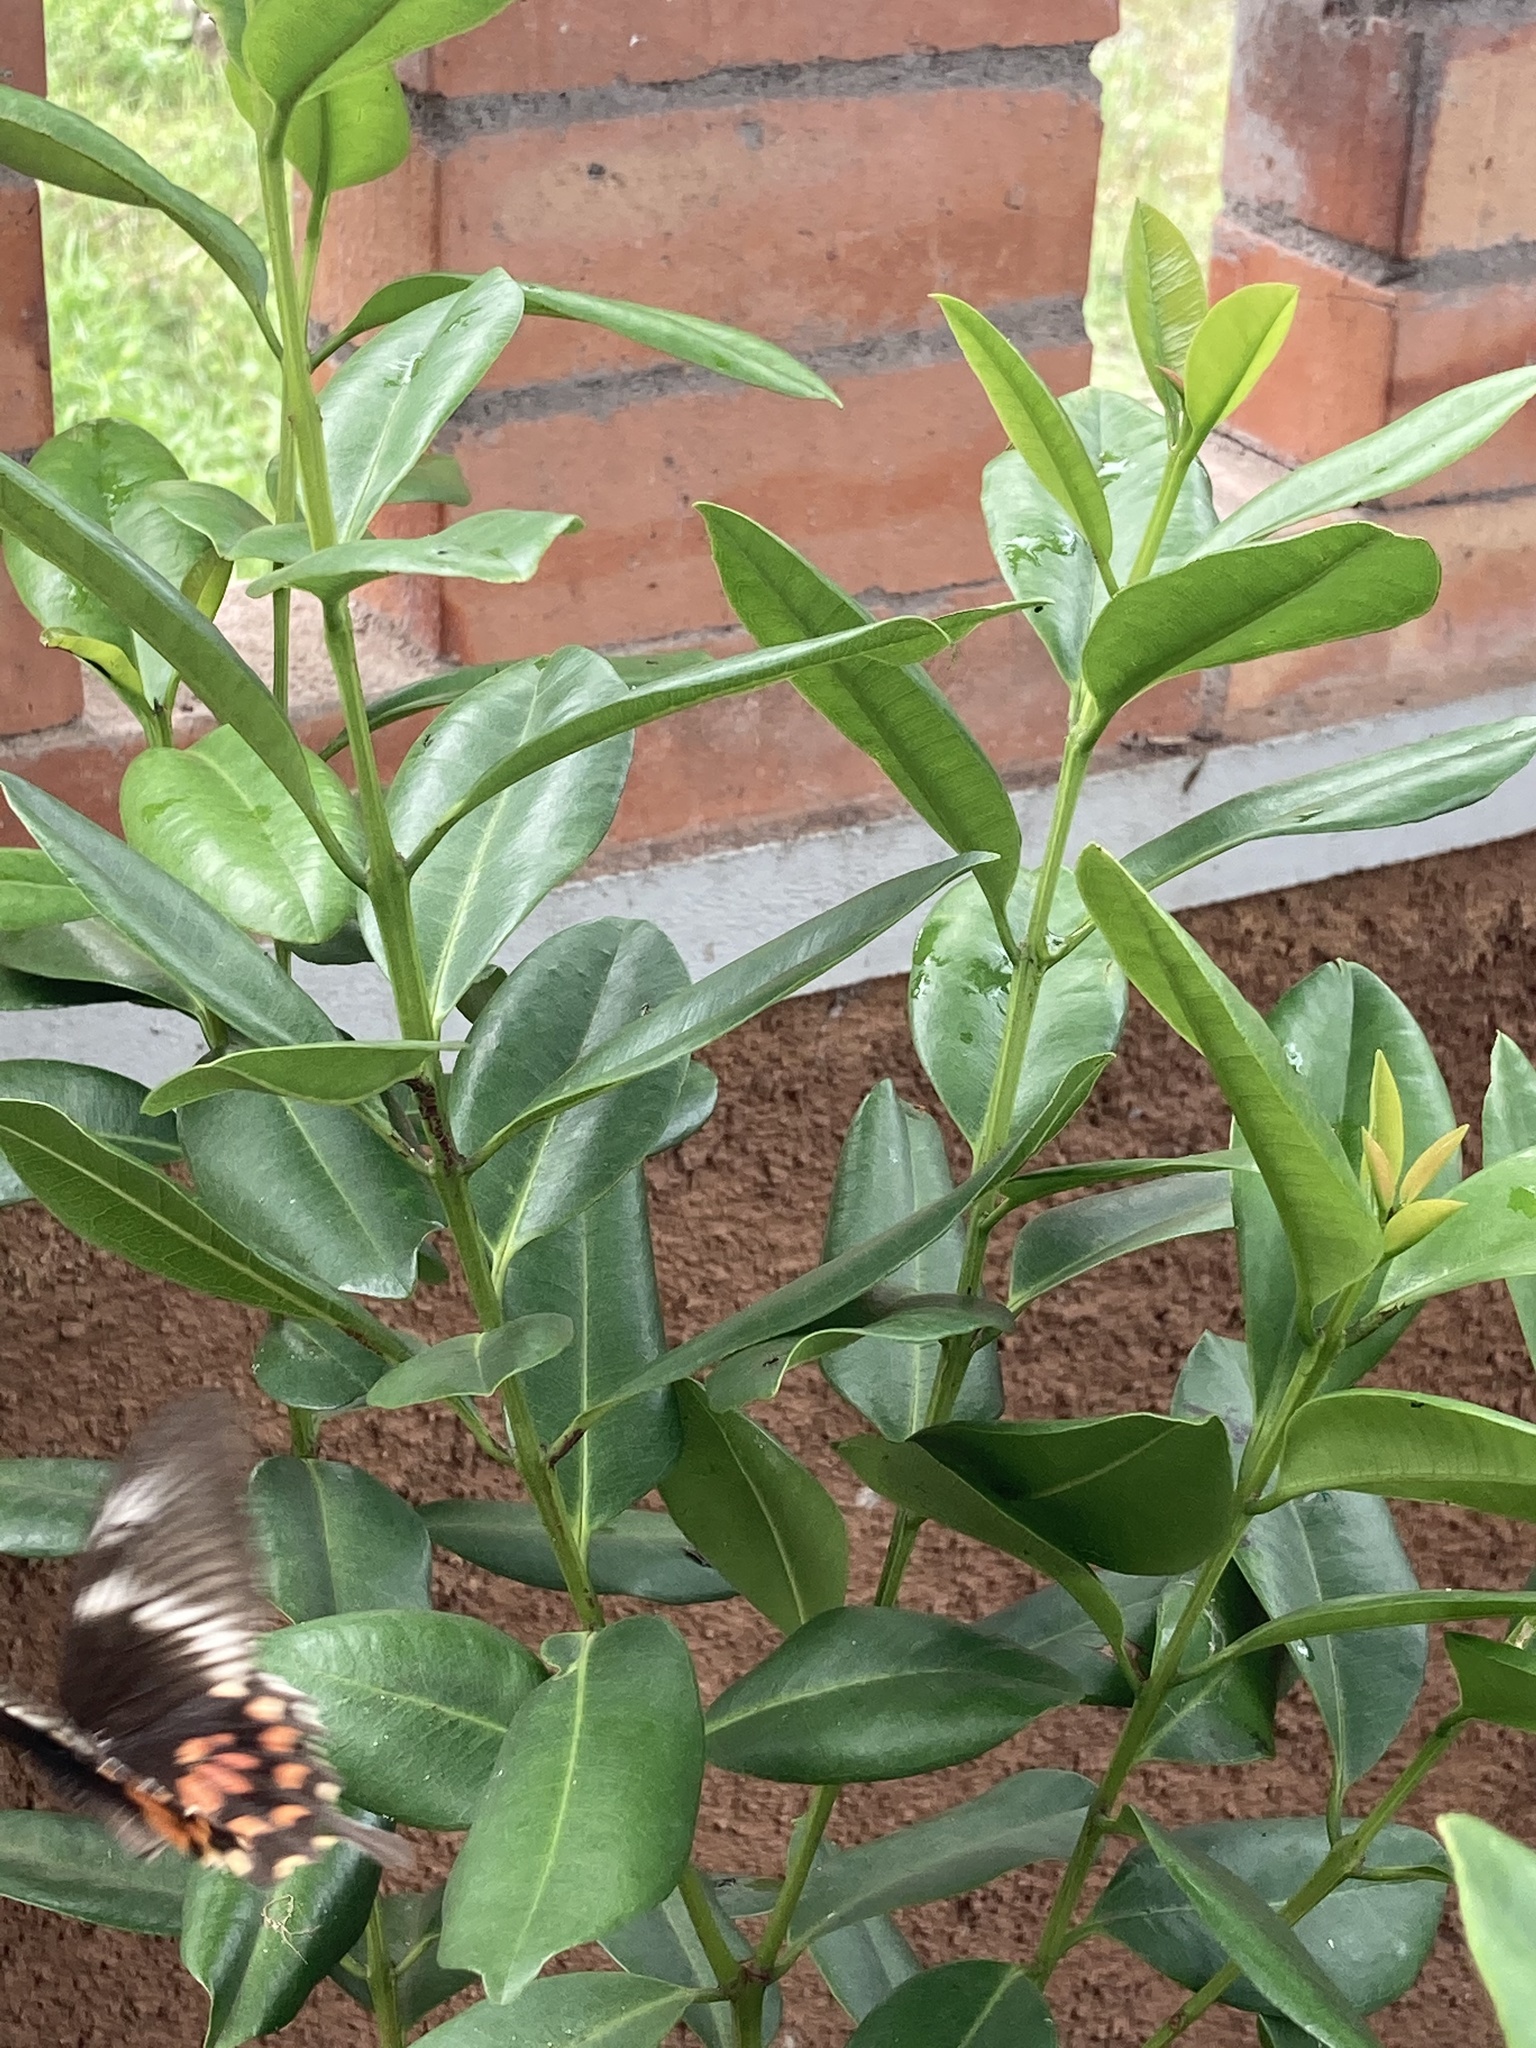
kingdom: Animalia
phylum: Arthropoda
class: Insecta
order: Lepidoptera
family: Papilionidae
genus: Papilio
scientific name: Papilio polytes
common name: Common mormon
